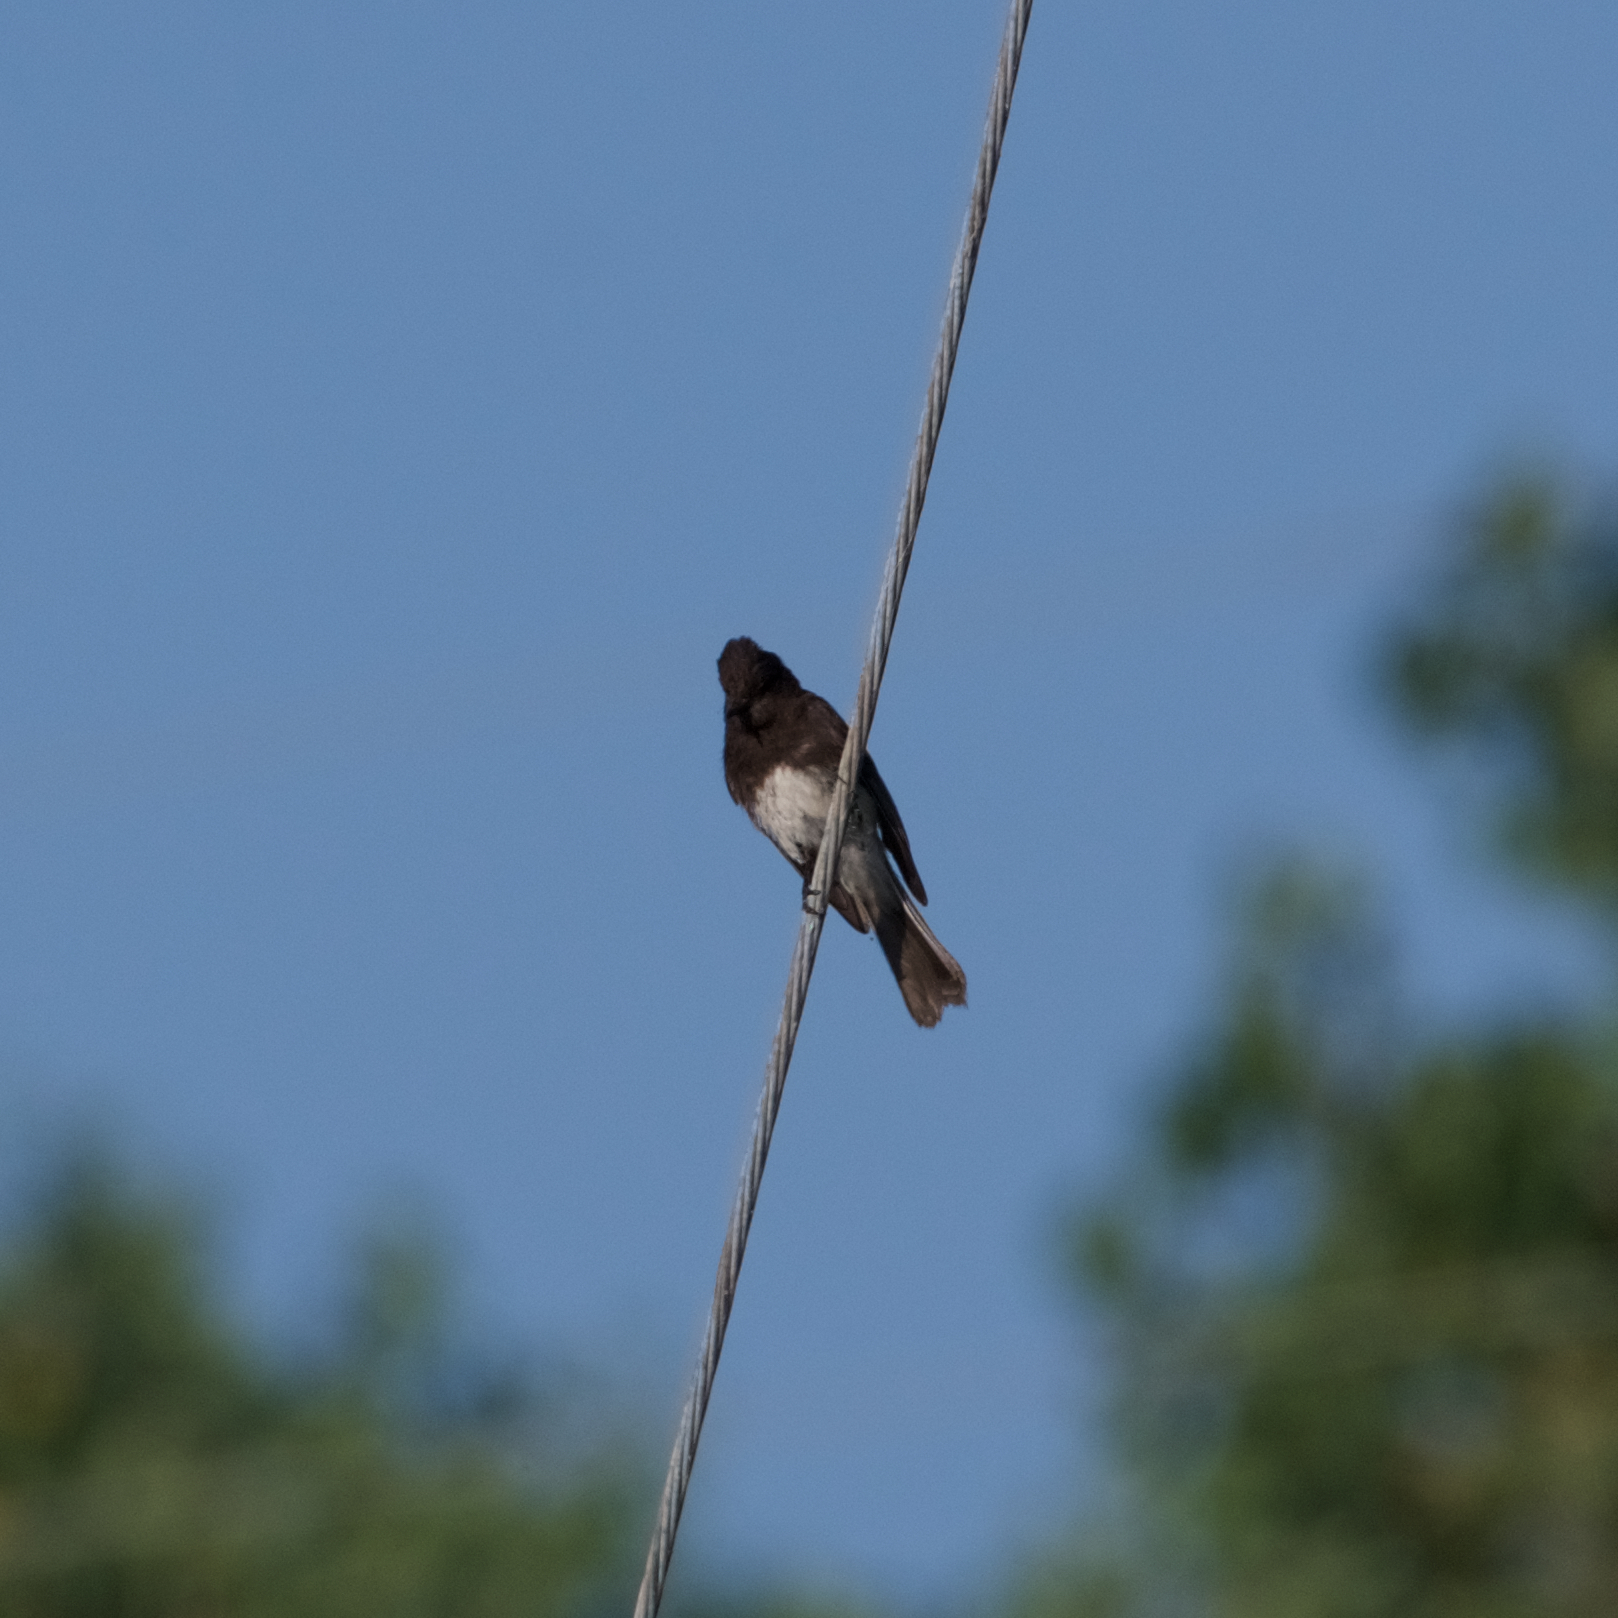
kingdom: Animalia
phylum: Chordata
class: Aves
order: Passeriformes
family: Tyrannidae
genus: Sayornis
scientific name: Sayornis nigricans
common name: Black phoebe
